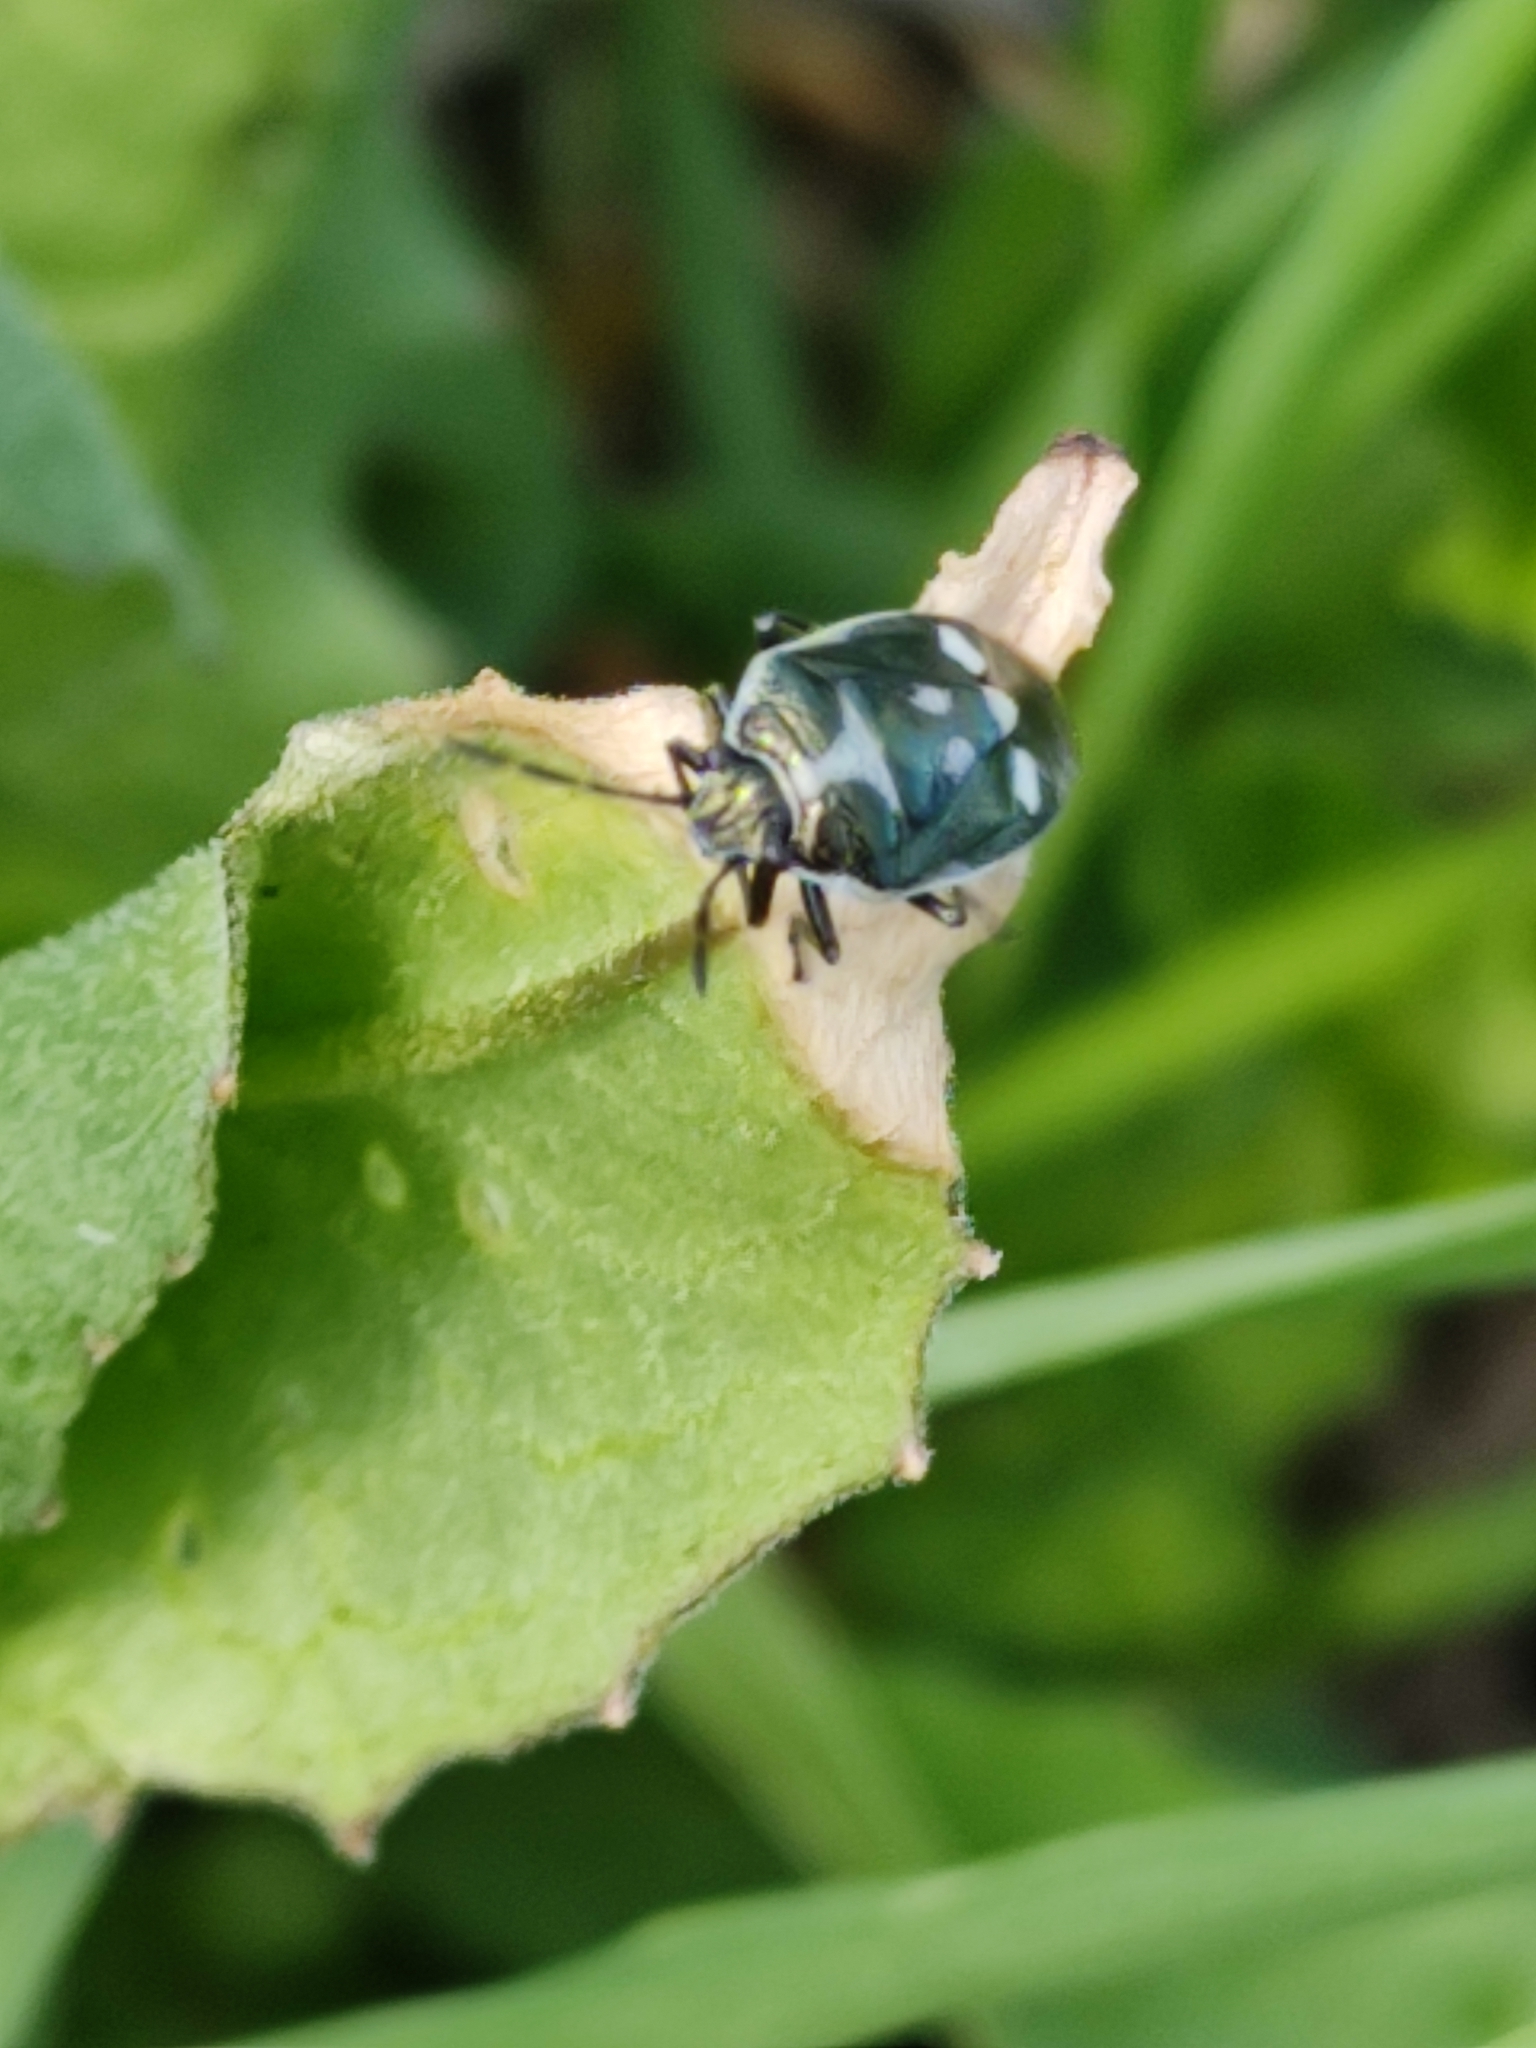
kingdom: Animalia
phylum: Arthropoda
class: Insecta
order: Hemiptera
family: Pentatomidae
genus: Eurydema
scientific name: Eurydema oleracea
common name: Cabbage bug
